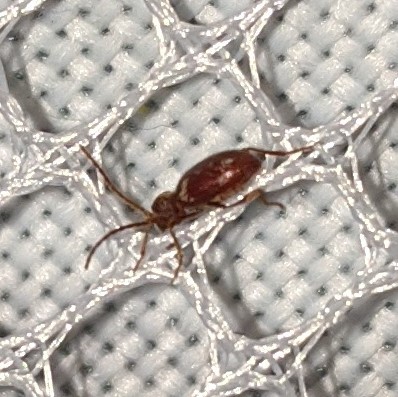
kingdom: Animalia
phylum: Arthropoda
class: Insecta
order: Coleoptera
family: Ptinidae
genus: Ptinus
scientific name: Ptinus fur
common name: White-marked spider beetle
